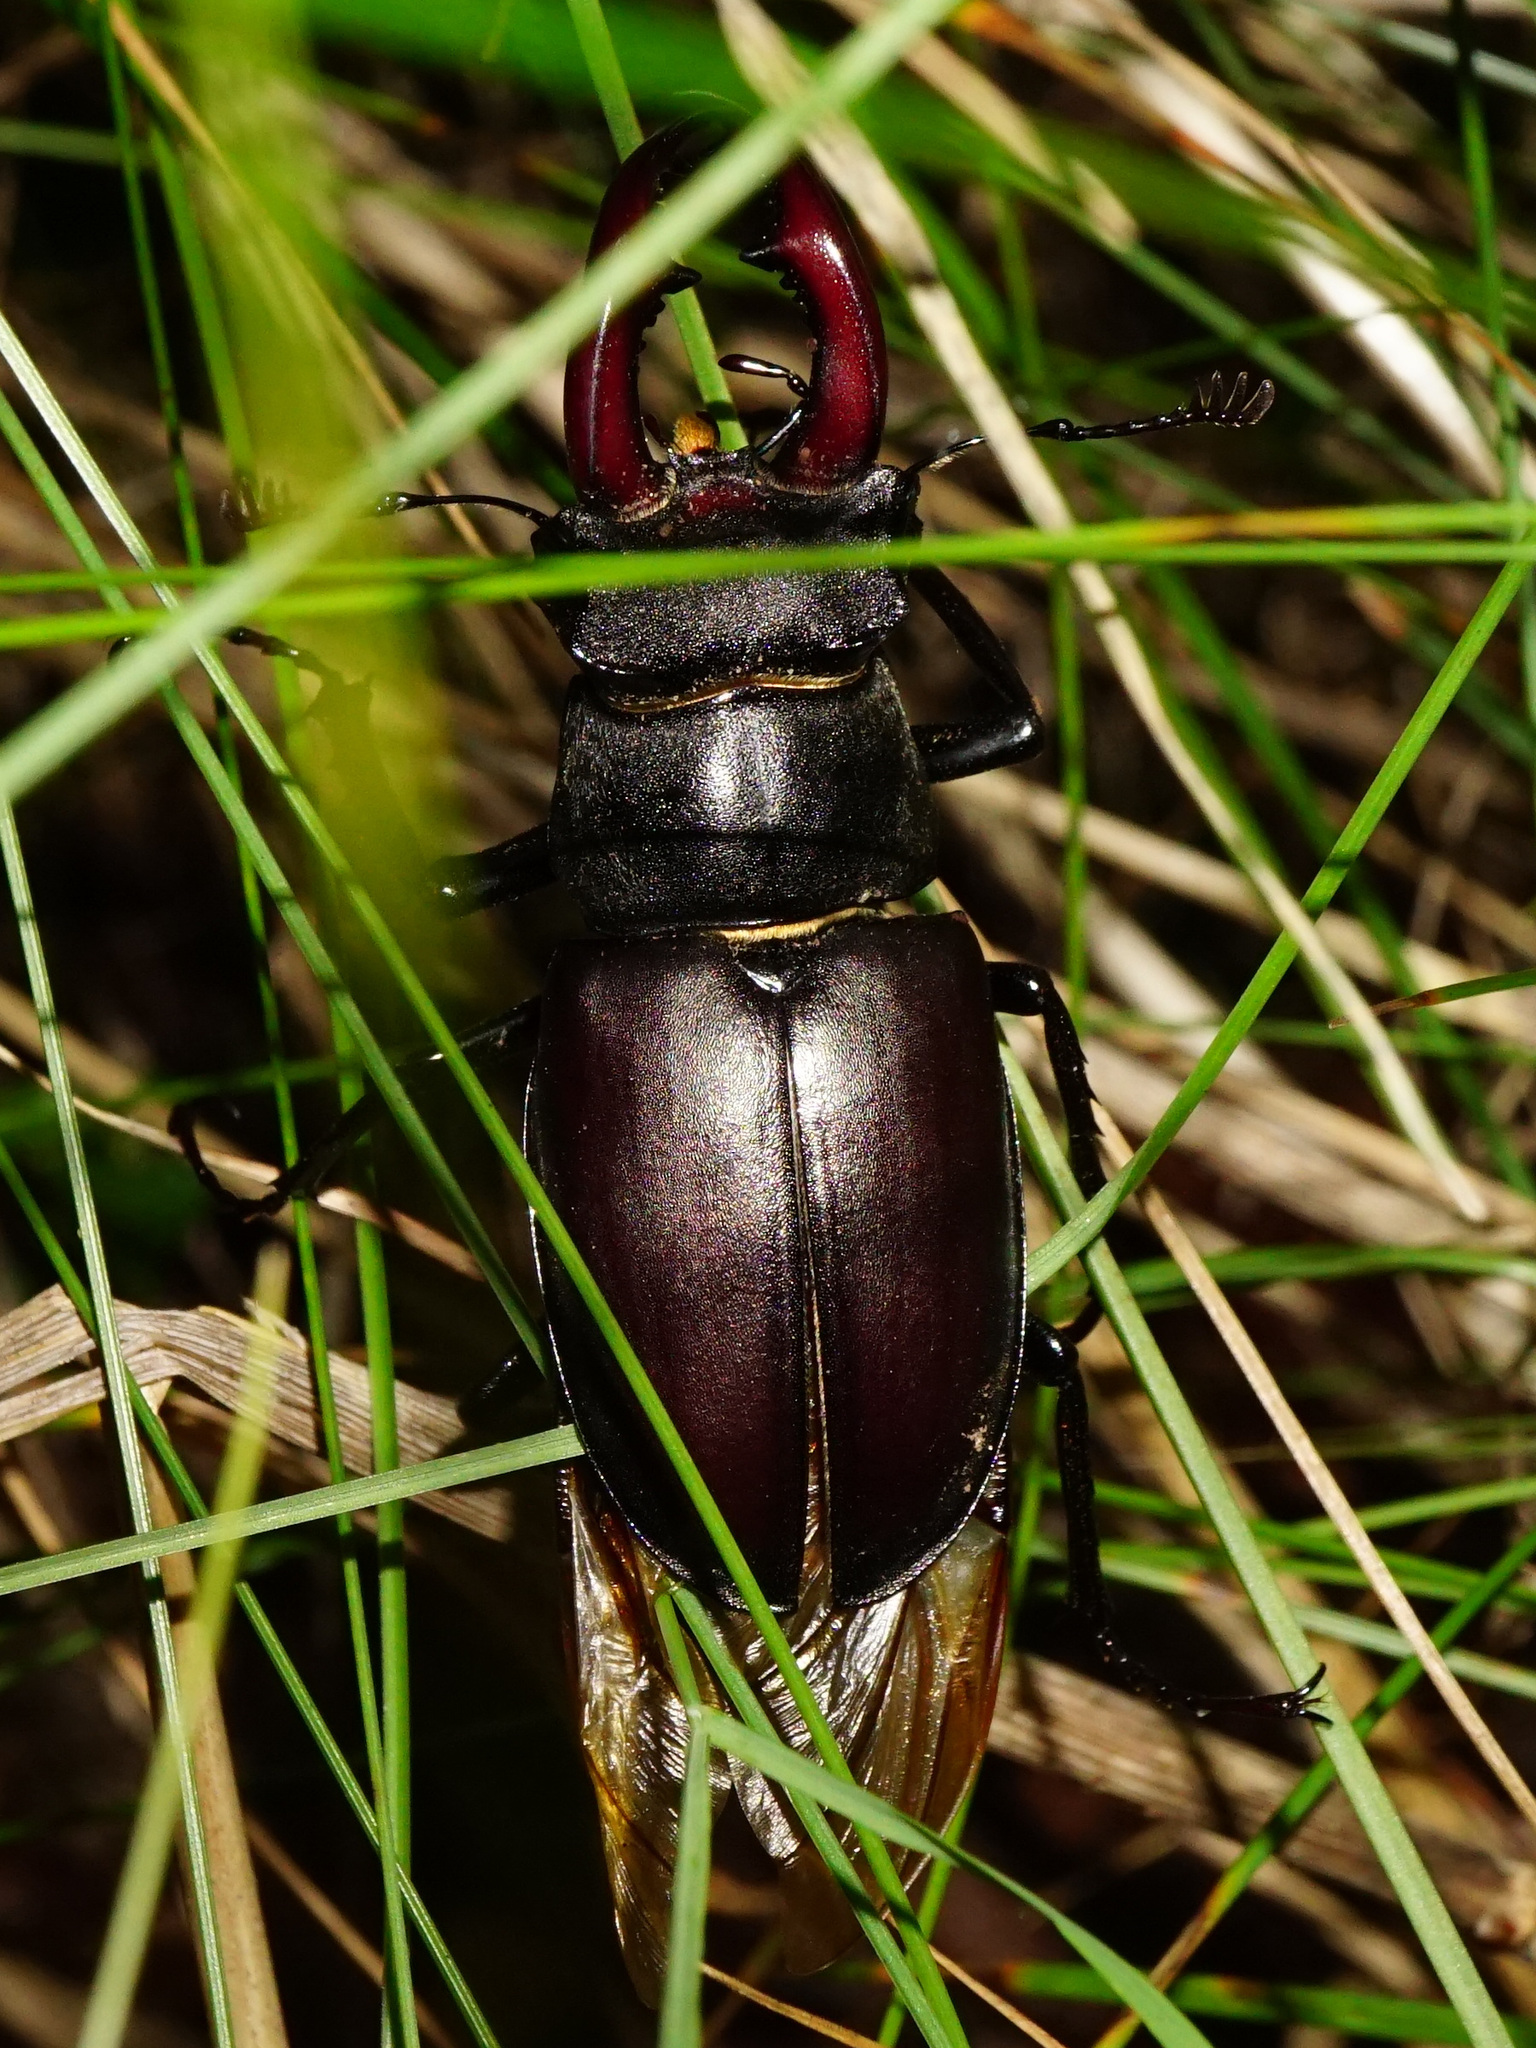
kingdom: Animalia
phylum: Arthropoda
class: Insecta
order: Coleoptera
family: Lucanidae
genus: Lucanus
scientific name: Lucanus cervus
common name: Stag beetle
